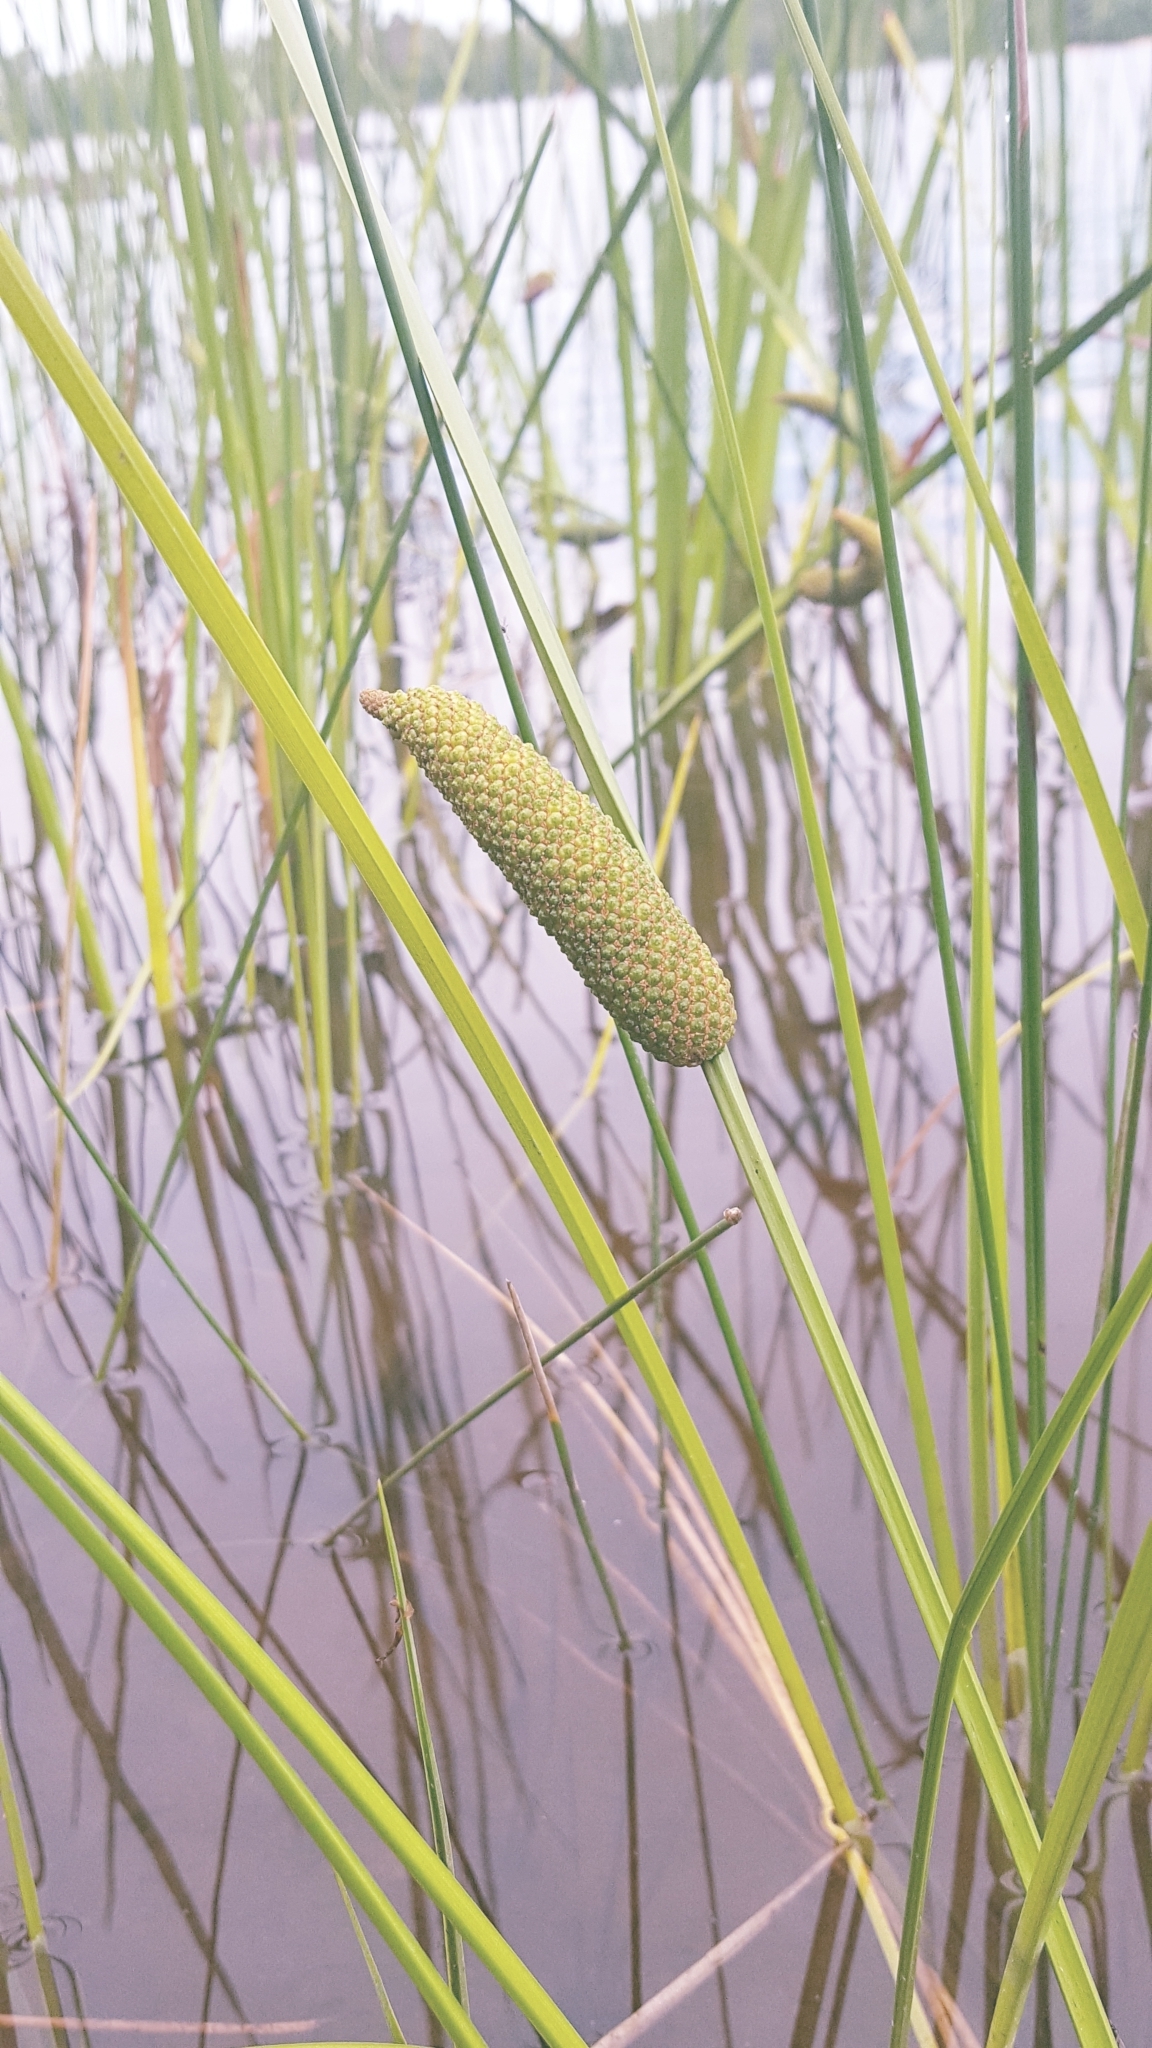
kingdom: Plantae
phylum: Tracheophyta
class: Liliopsida
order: Acorales
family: Acoraceae
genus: Acorus
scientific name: Acorus calamus
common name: Sweet-flag
